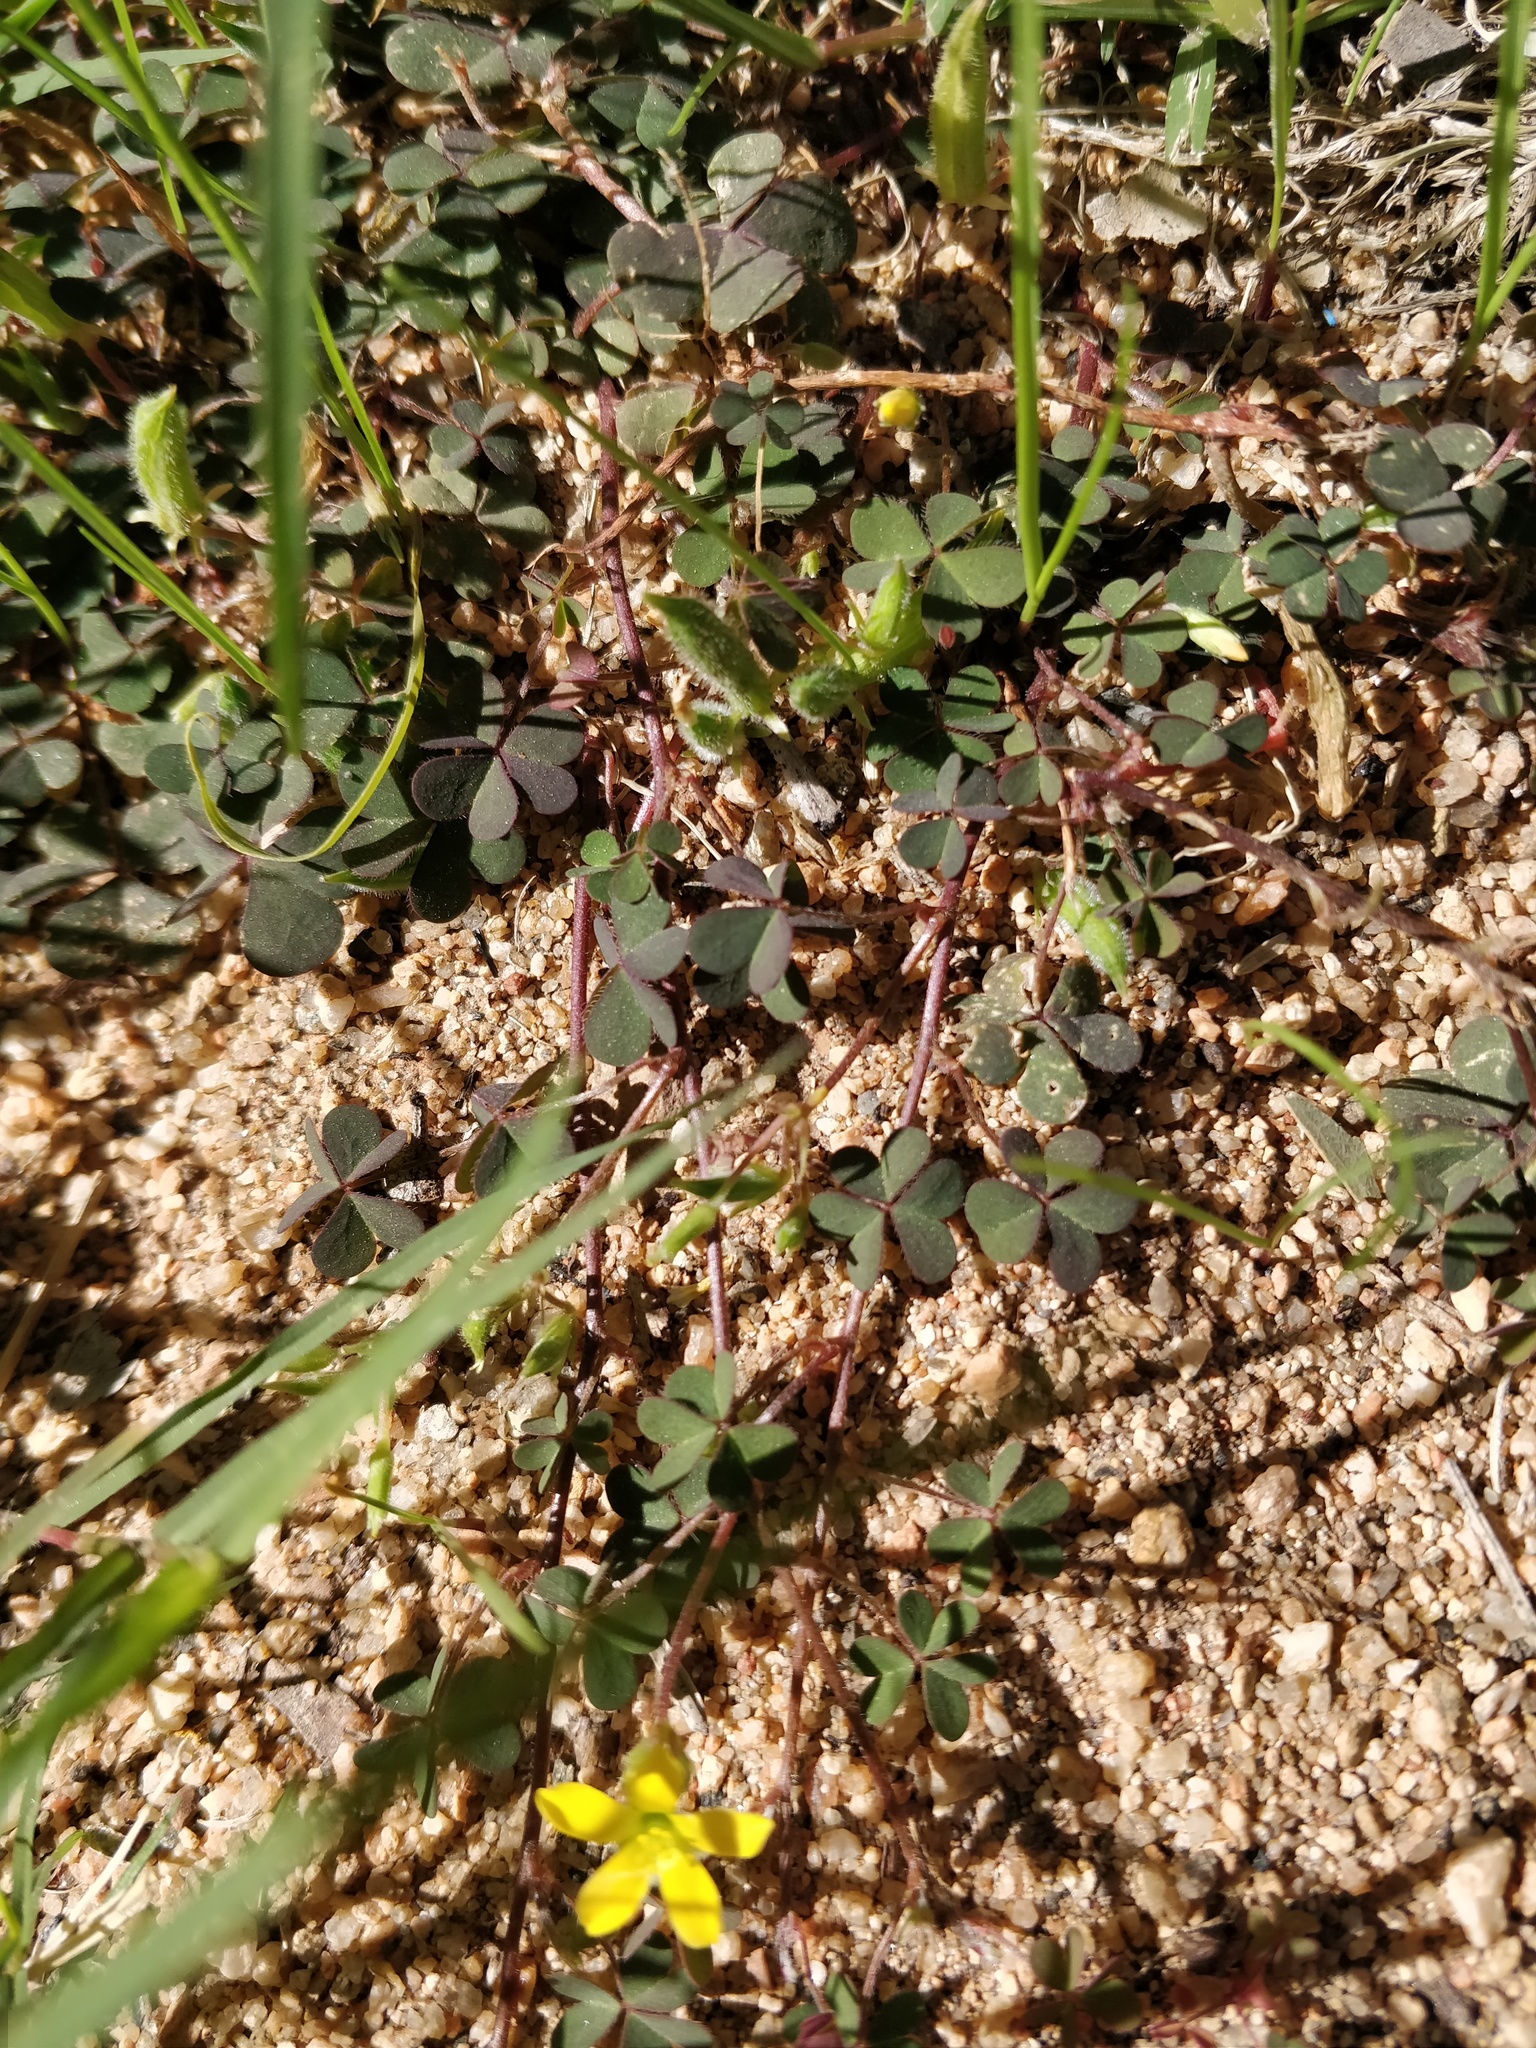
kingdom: Plantae
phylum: Tracheophyta
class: Magnoliopsida
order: Oxalidales
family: Oxalidaceae
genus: Oxalis
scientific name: Oxalis corniculata
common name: Procumbent yellow-sorrel
